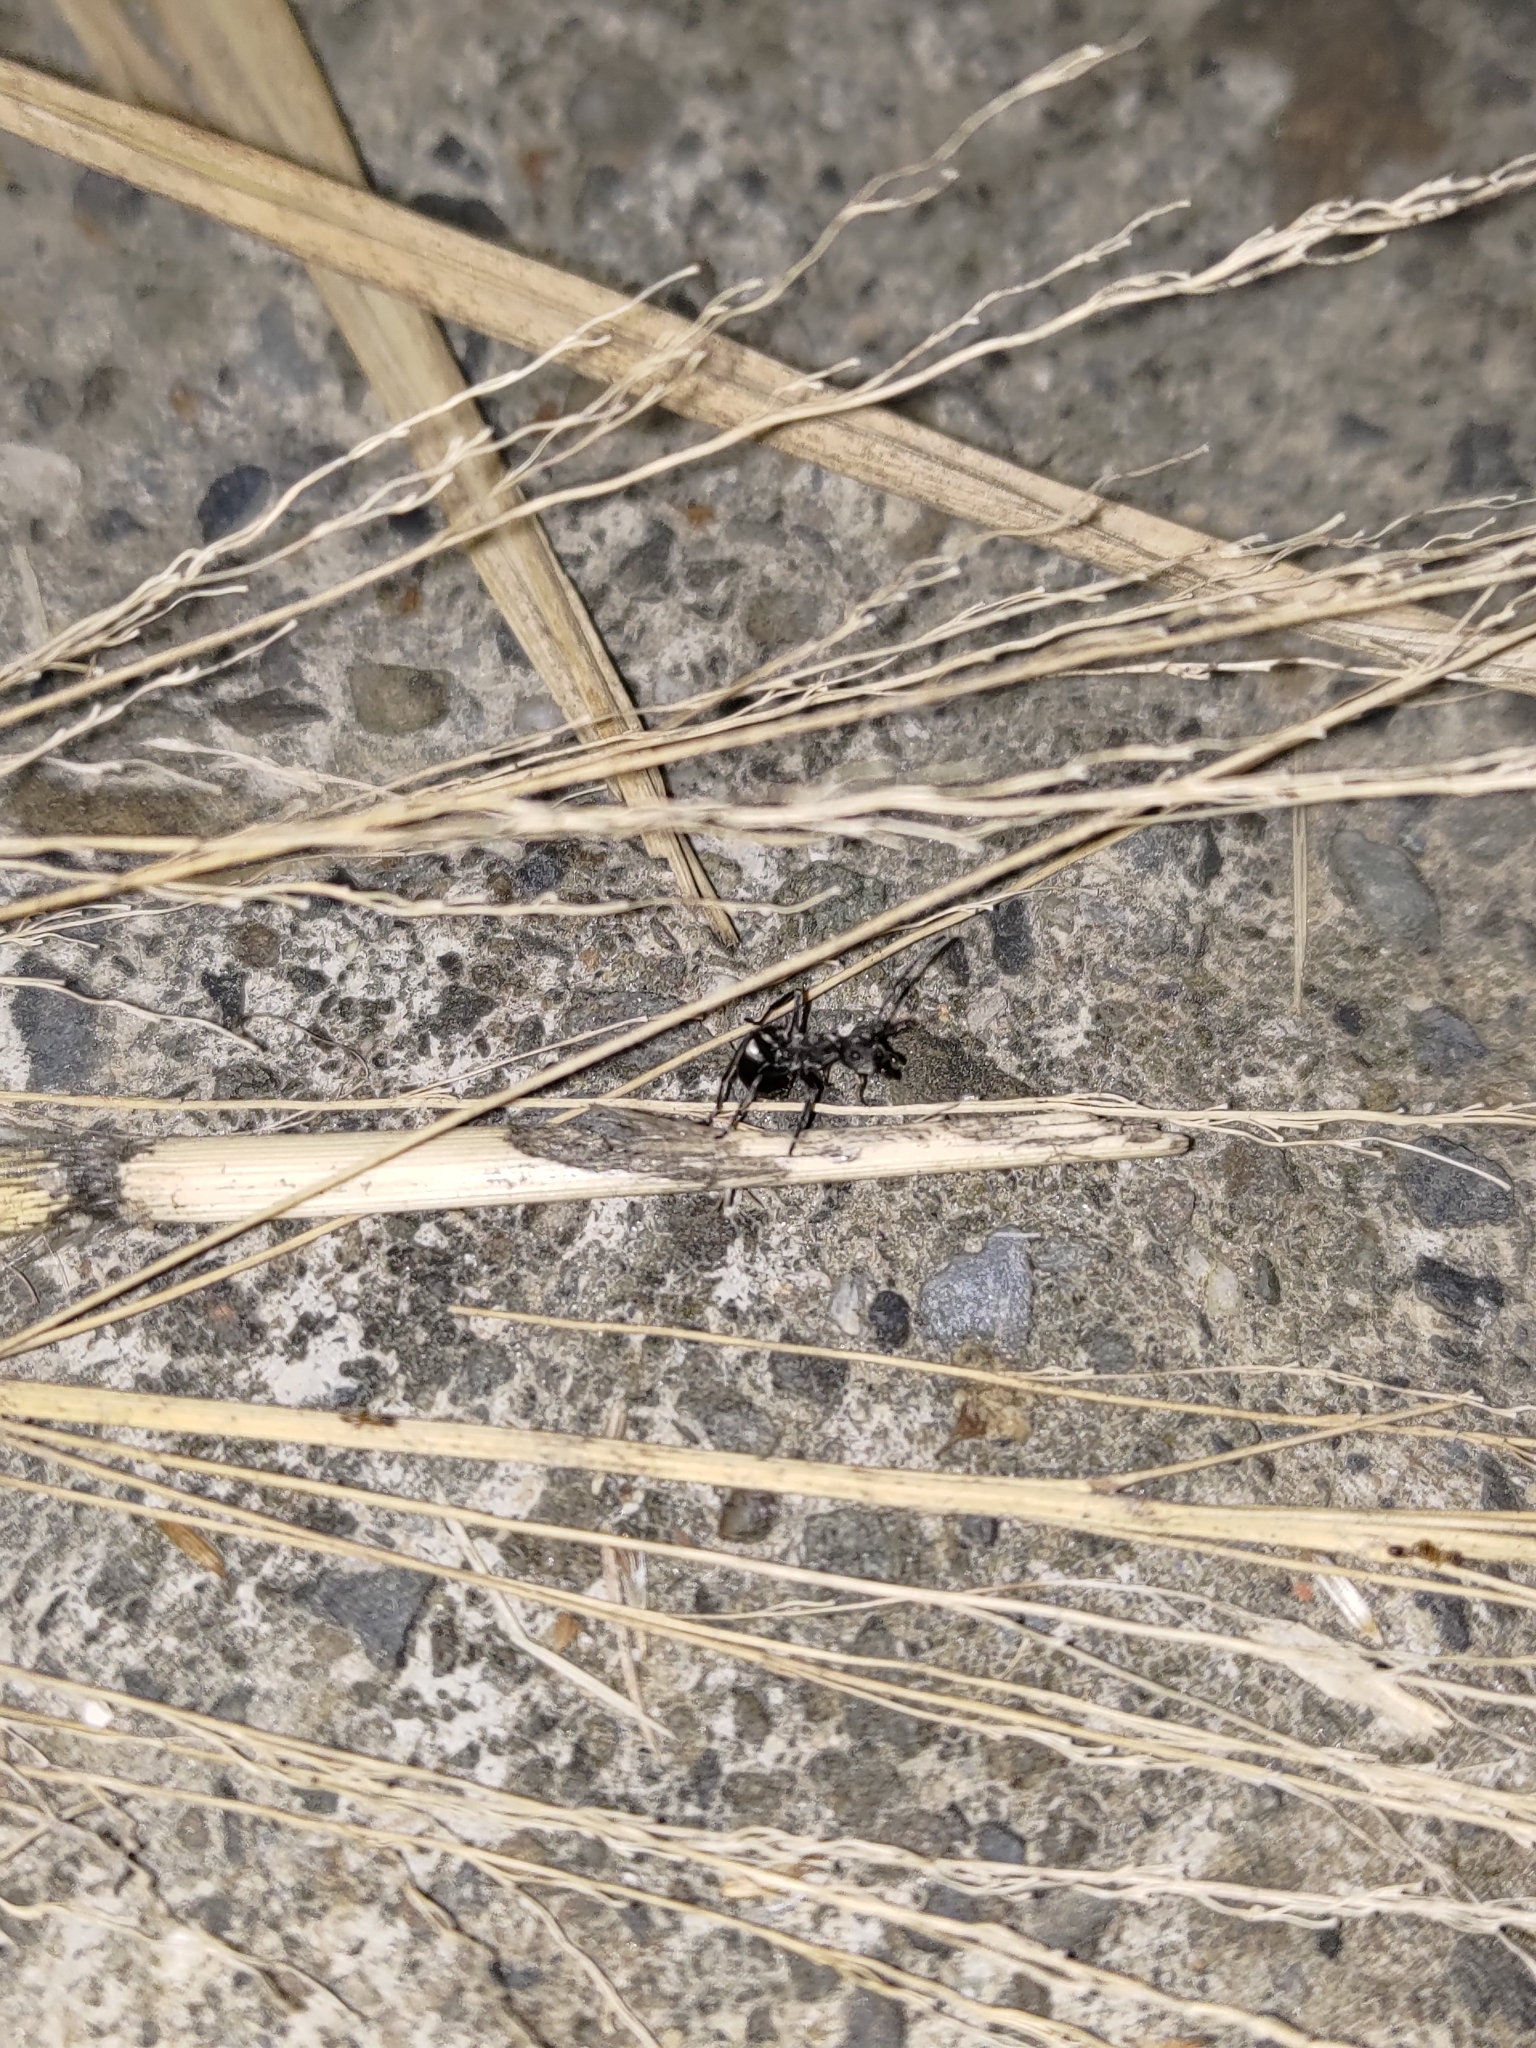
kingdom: Animalia
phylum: Arthropoda
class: Insecta
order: Hymenoptera
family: Formicidae
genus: Polyrhachis
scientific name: Polyrhachis dives
